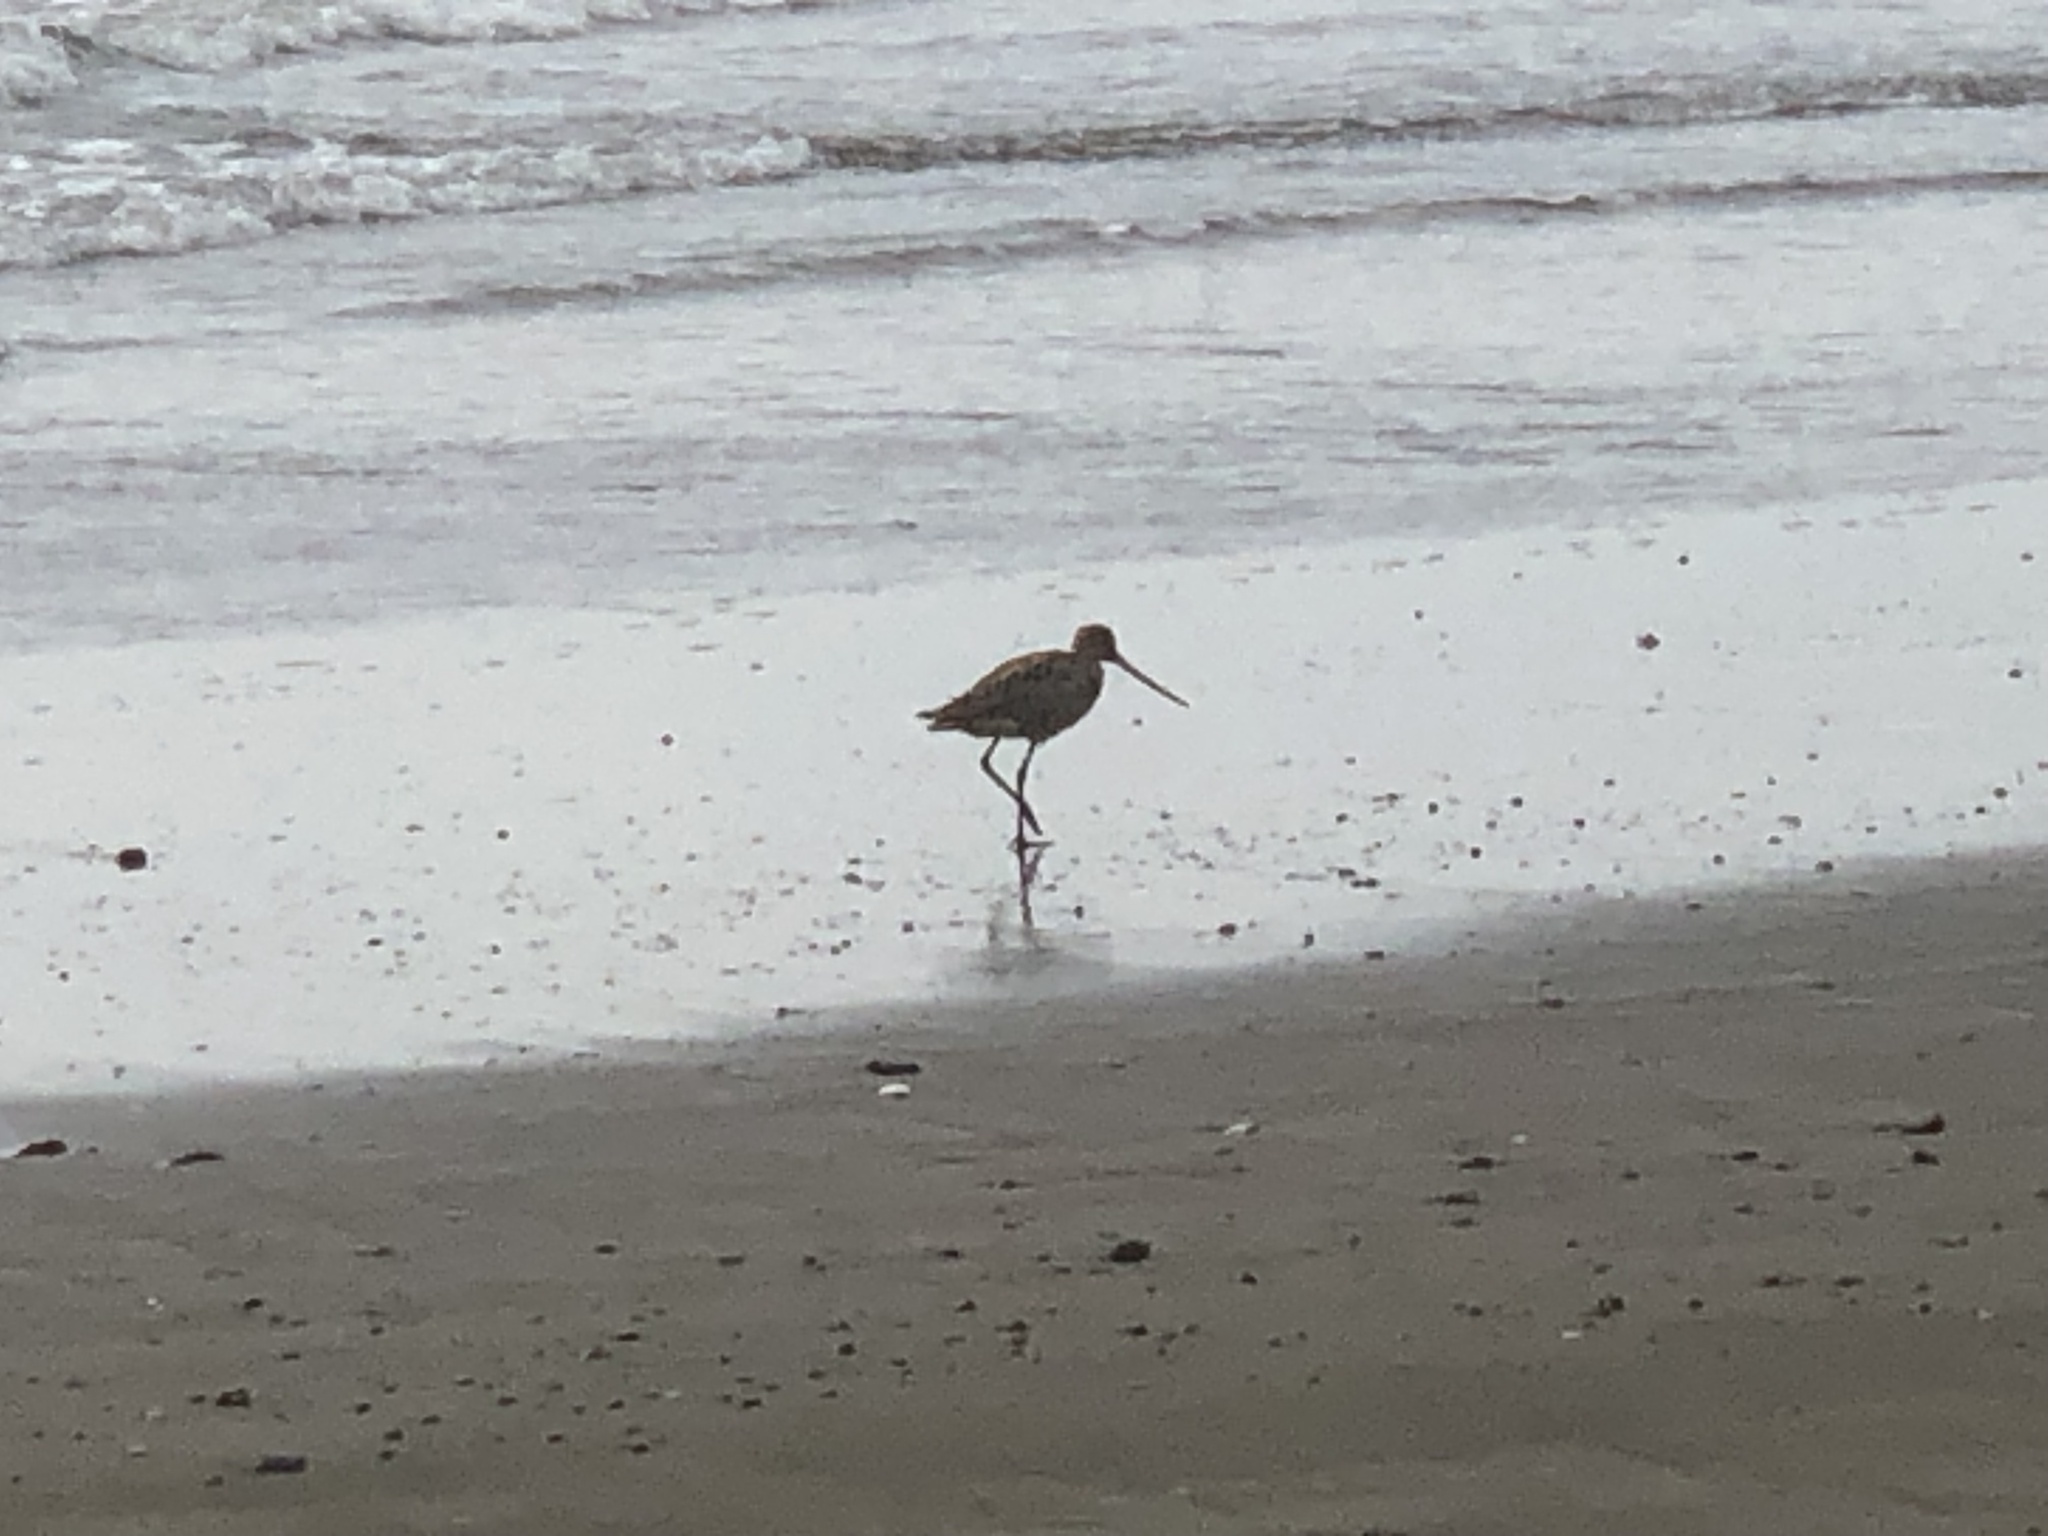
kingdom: Animalia
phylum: Chordata
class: Aves
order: Charadriiformes
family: Scolopacidae
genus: Limosa
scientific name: Limosa fedoa
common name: Marbled godwit
